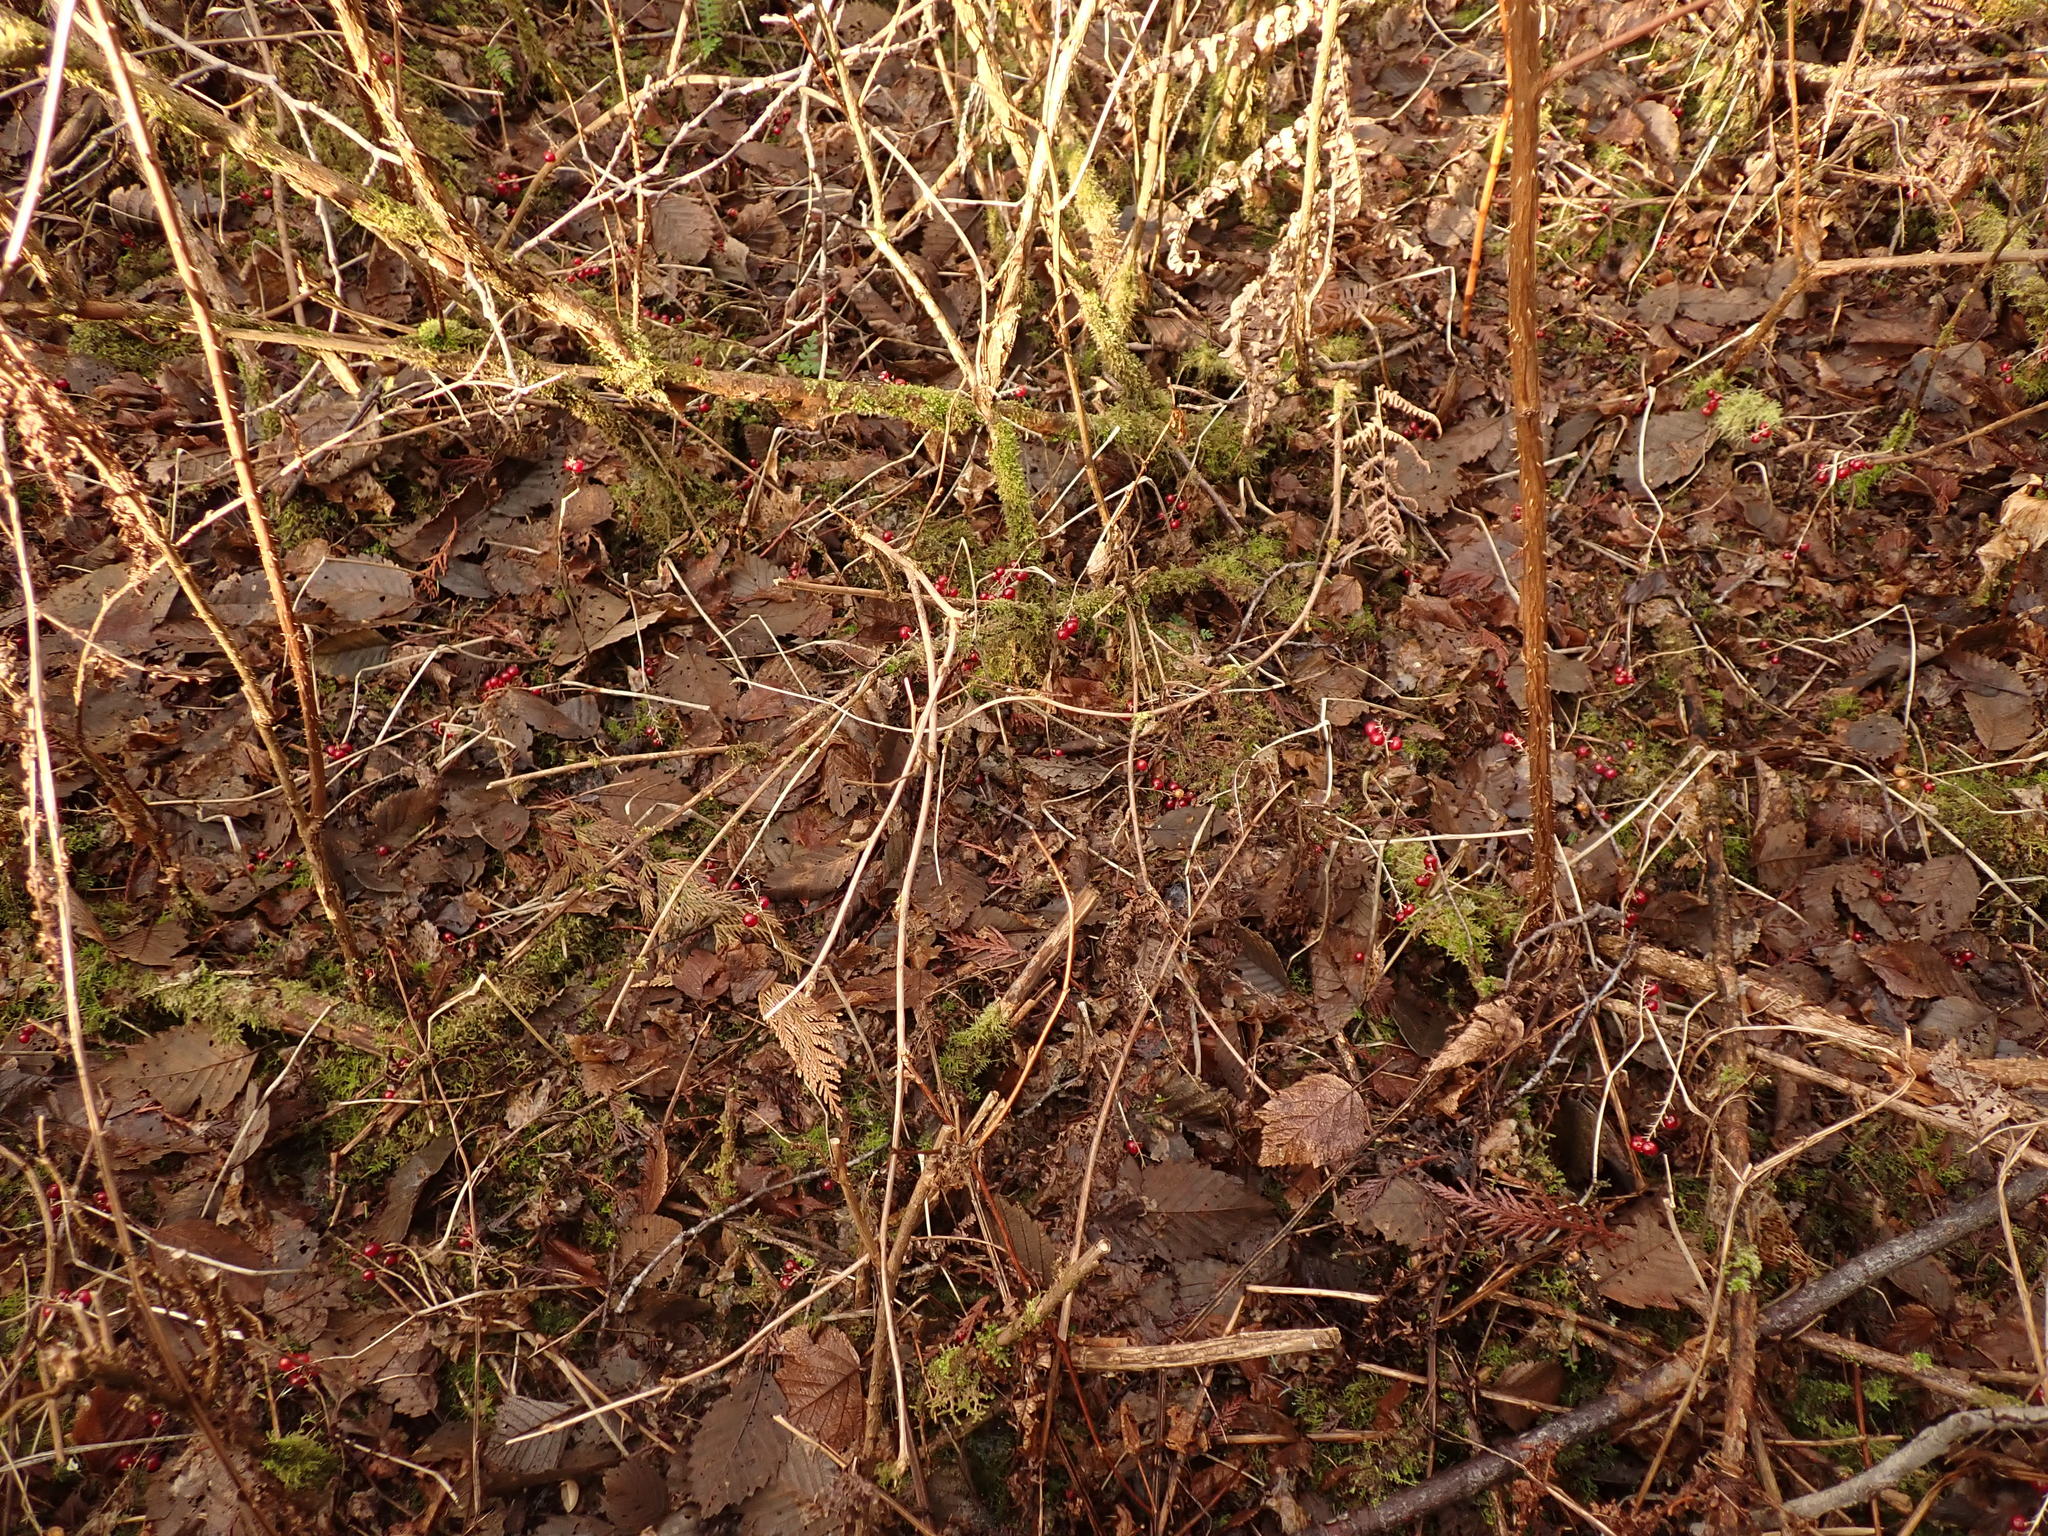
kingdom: Plantae
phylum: Tracheophyta
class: Liliopsida
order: Asparagales
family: Asparagaceae
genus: Maianthemum
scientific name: Maianthemum dilatatum
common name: False lily-of-the-valley
